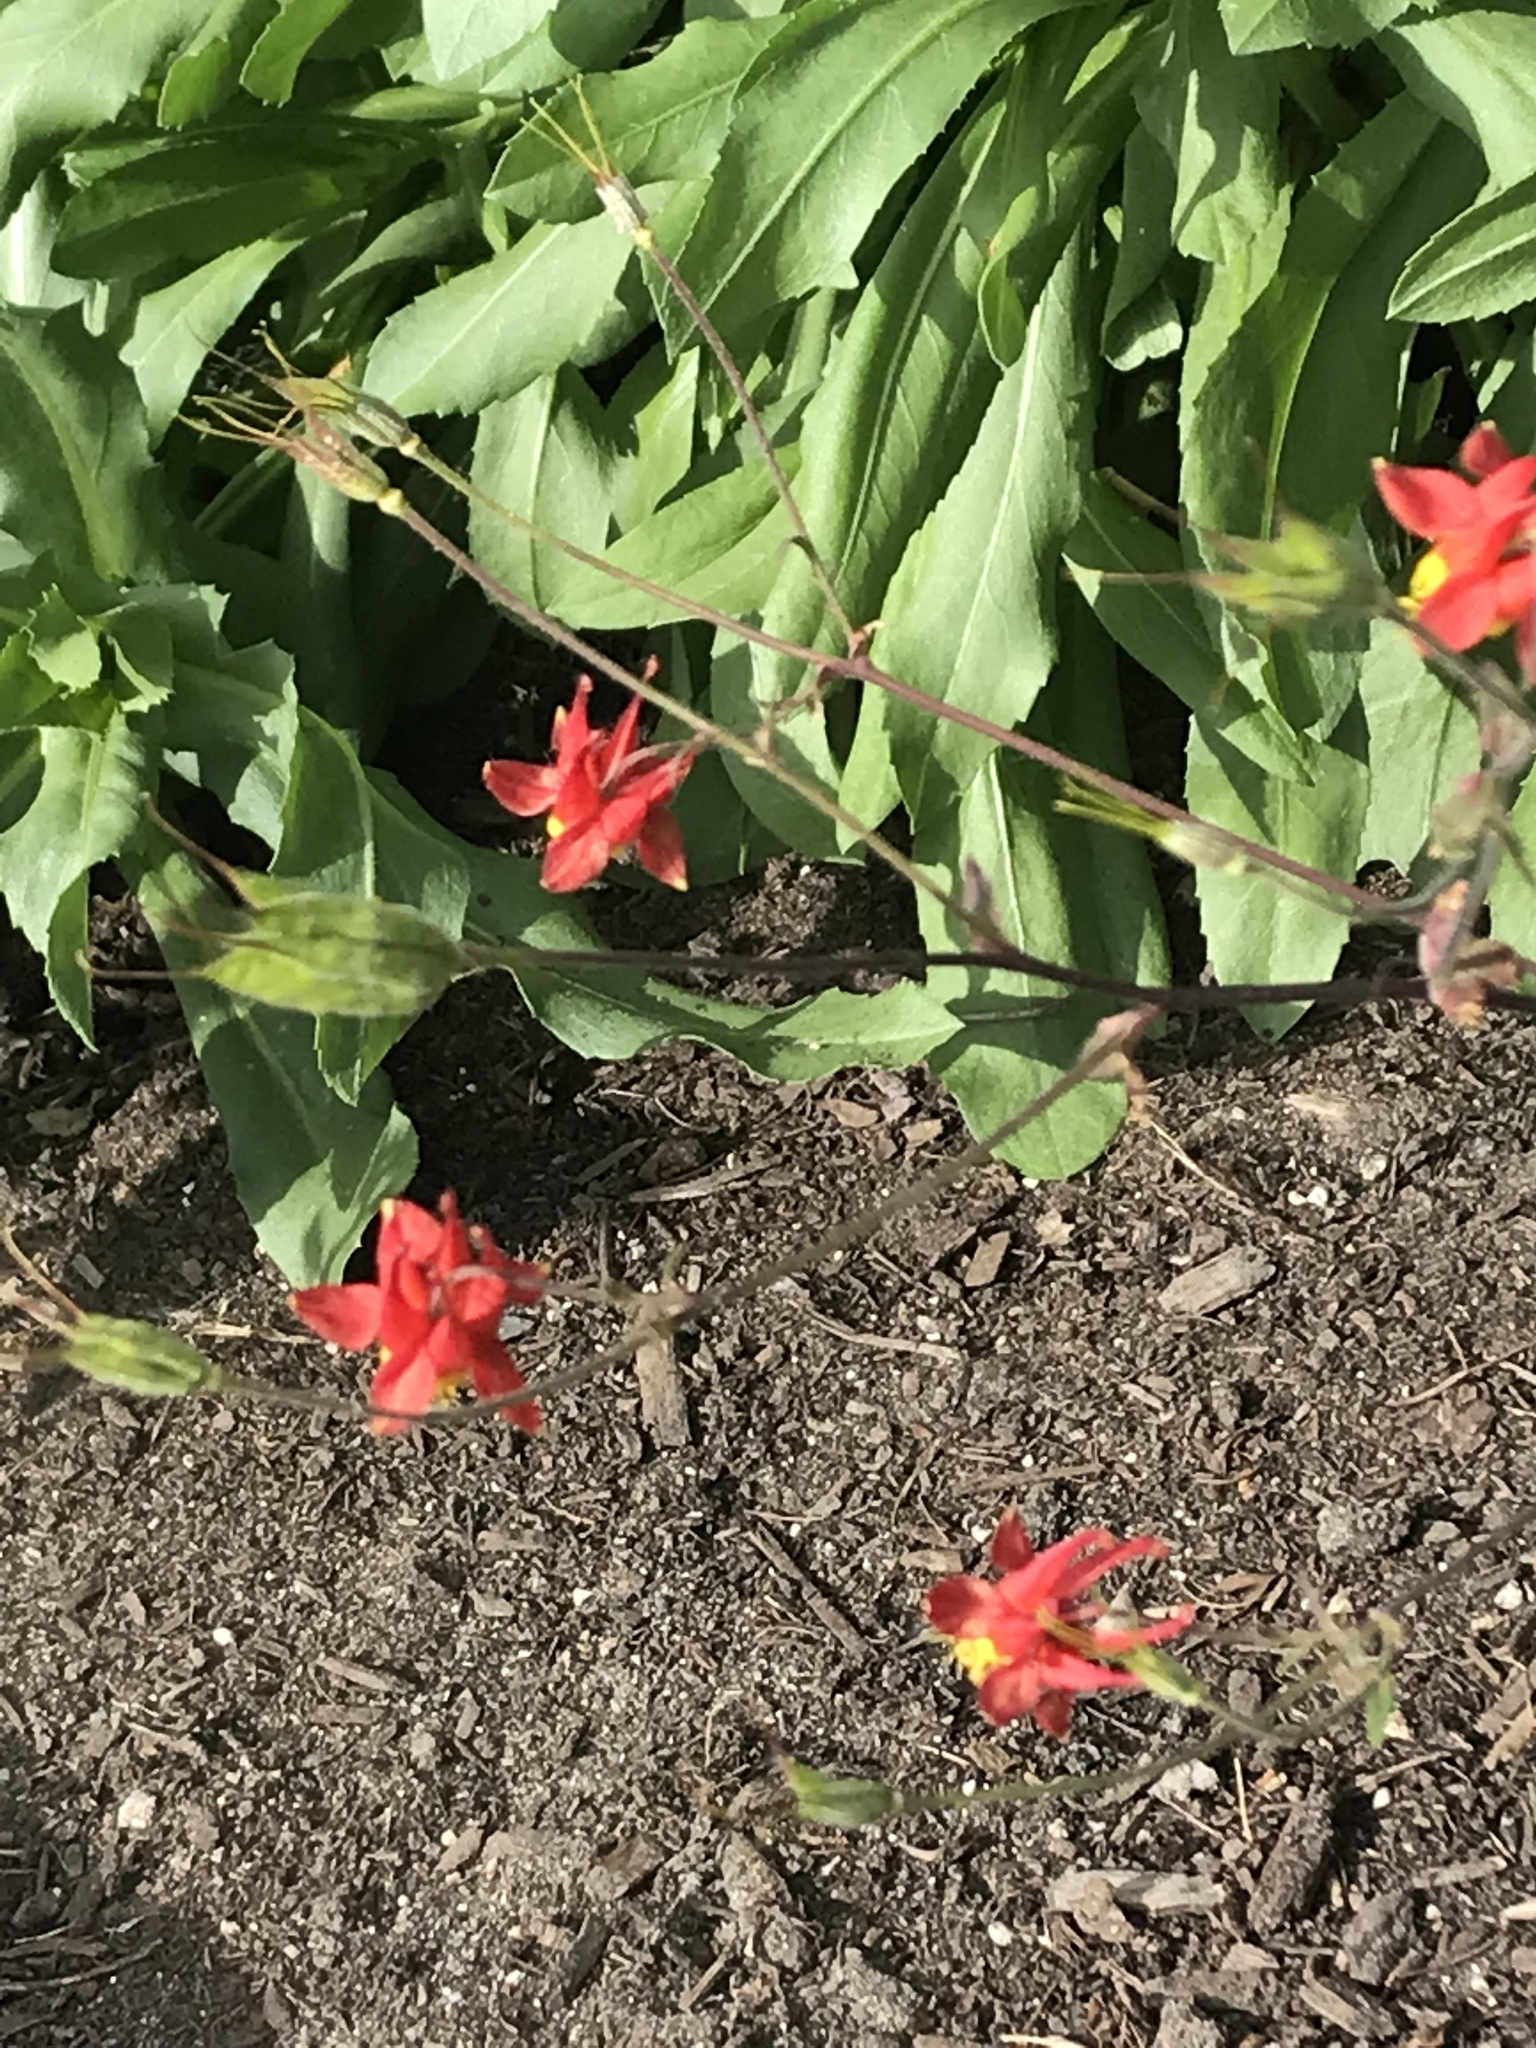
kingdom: Plantae
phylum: Tracheophyta
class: Magnoliopsida
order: Ranunculales
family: Ranunculaceae
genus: Aquilegia
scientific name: Aquilegia formosa
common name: Sitka columbine
